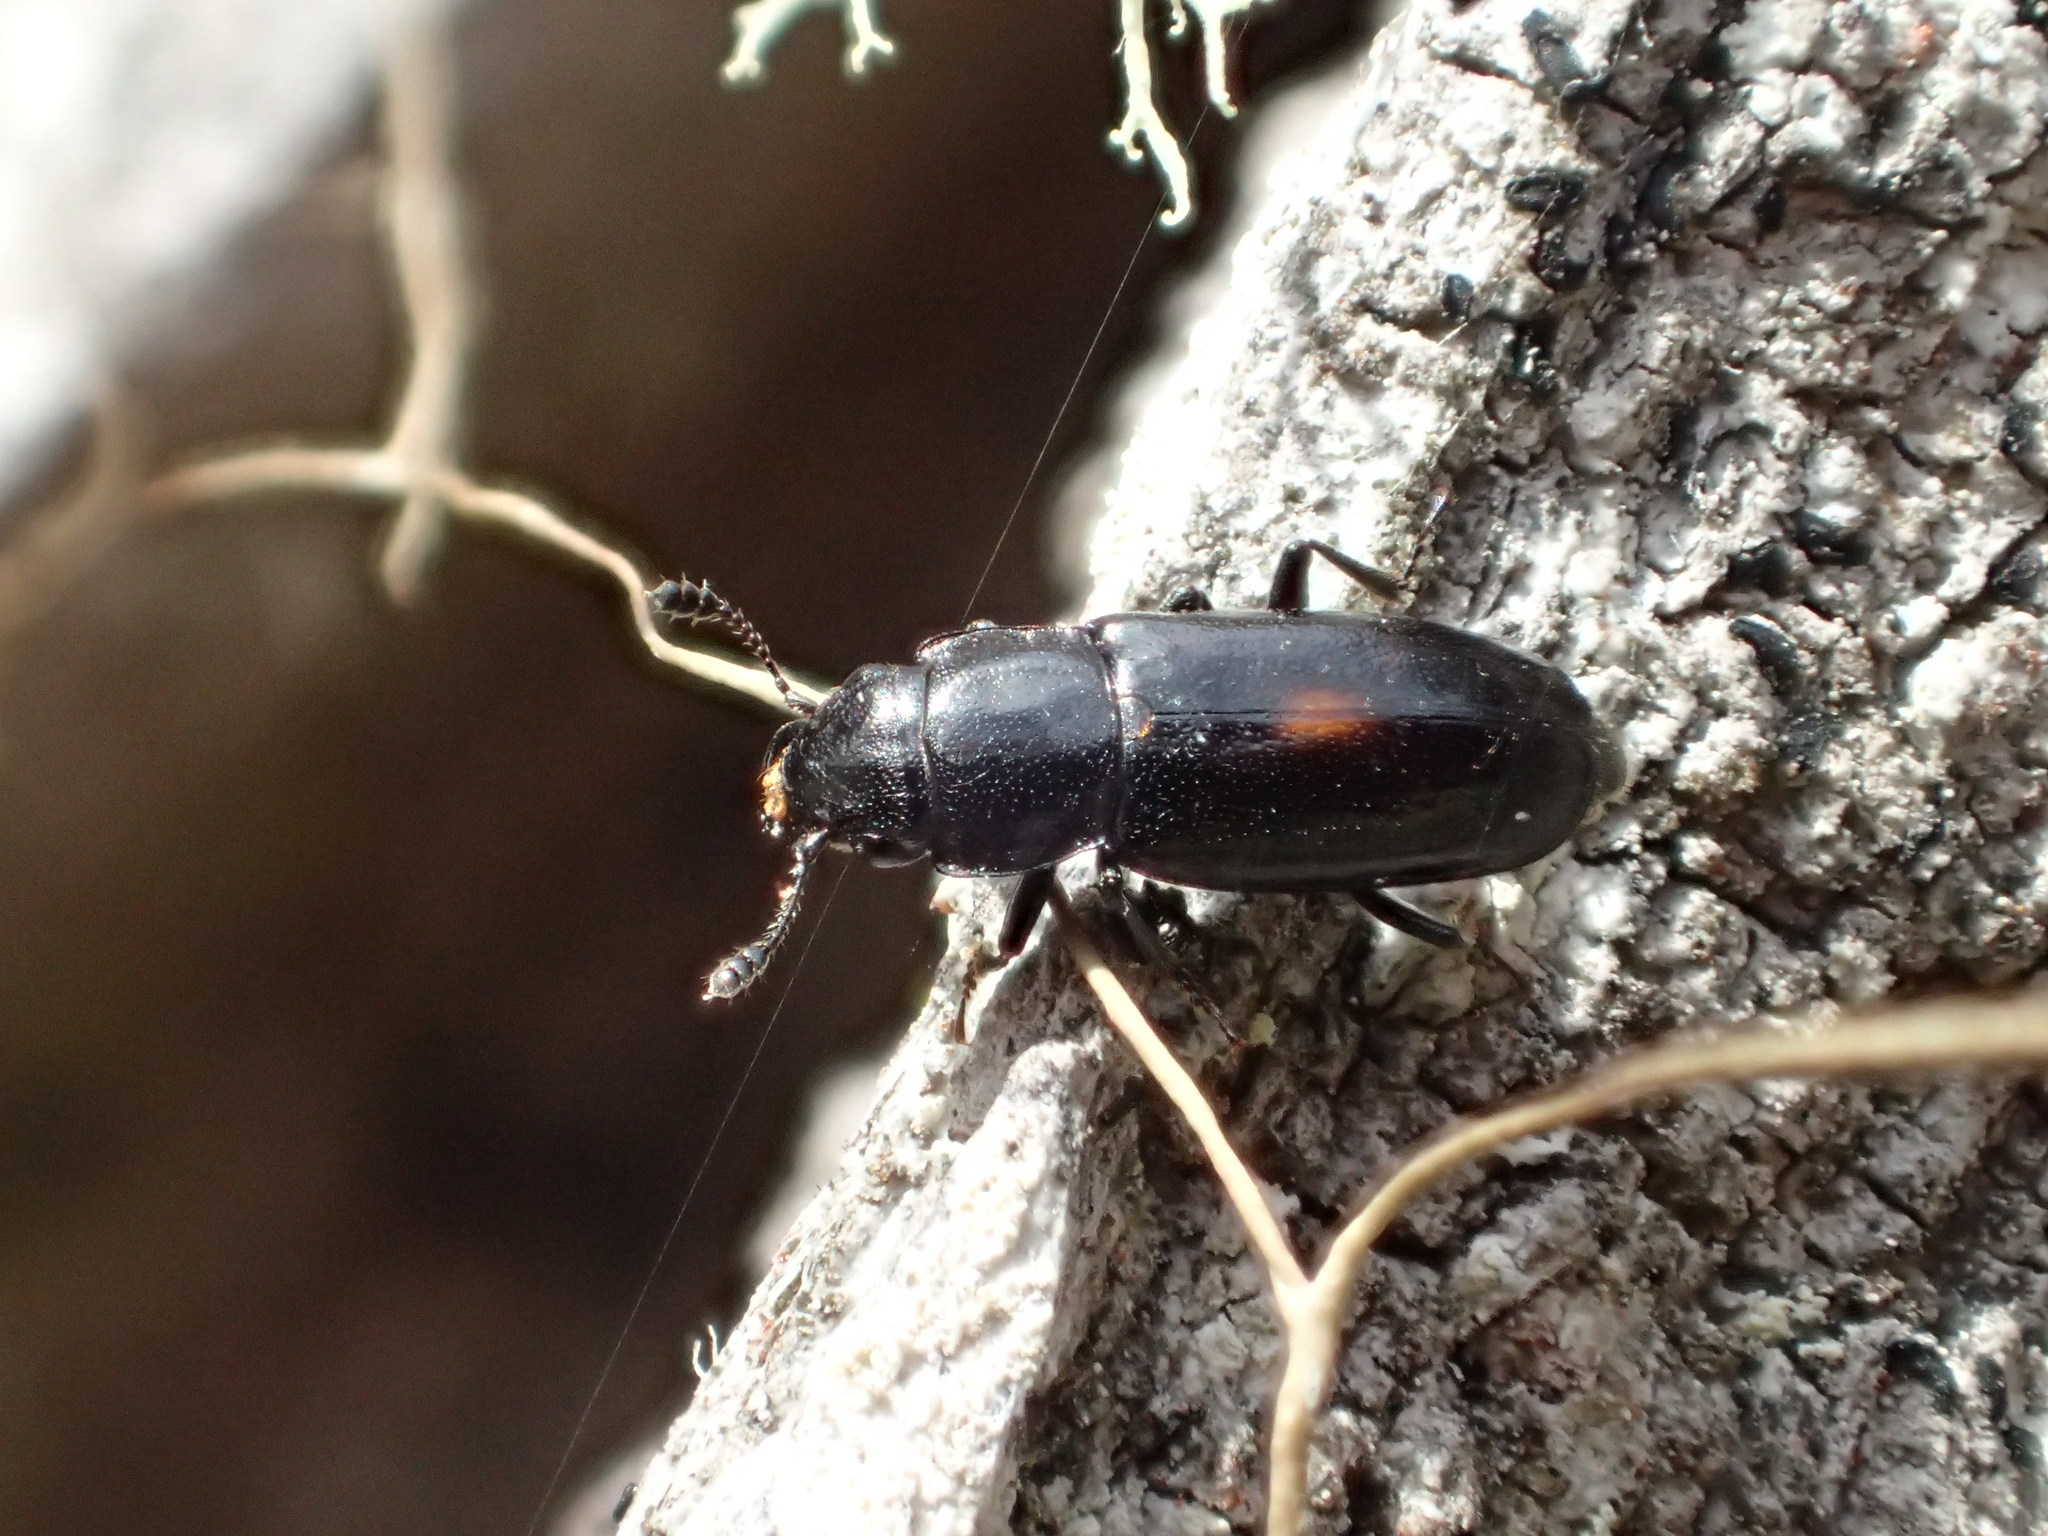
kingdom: Animalia
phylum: Arthropoda
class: Insecta
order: Coleoptera
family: Nitidulidae
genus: Glischrochilus
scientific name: Glischrochilus lecontei
